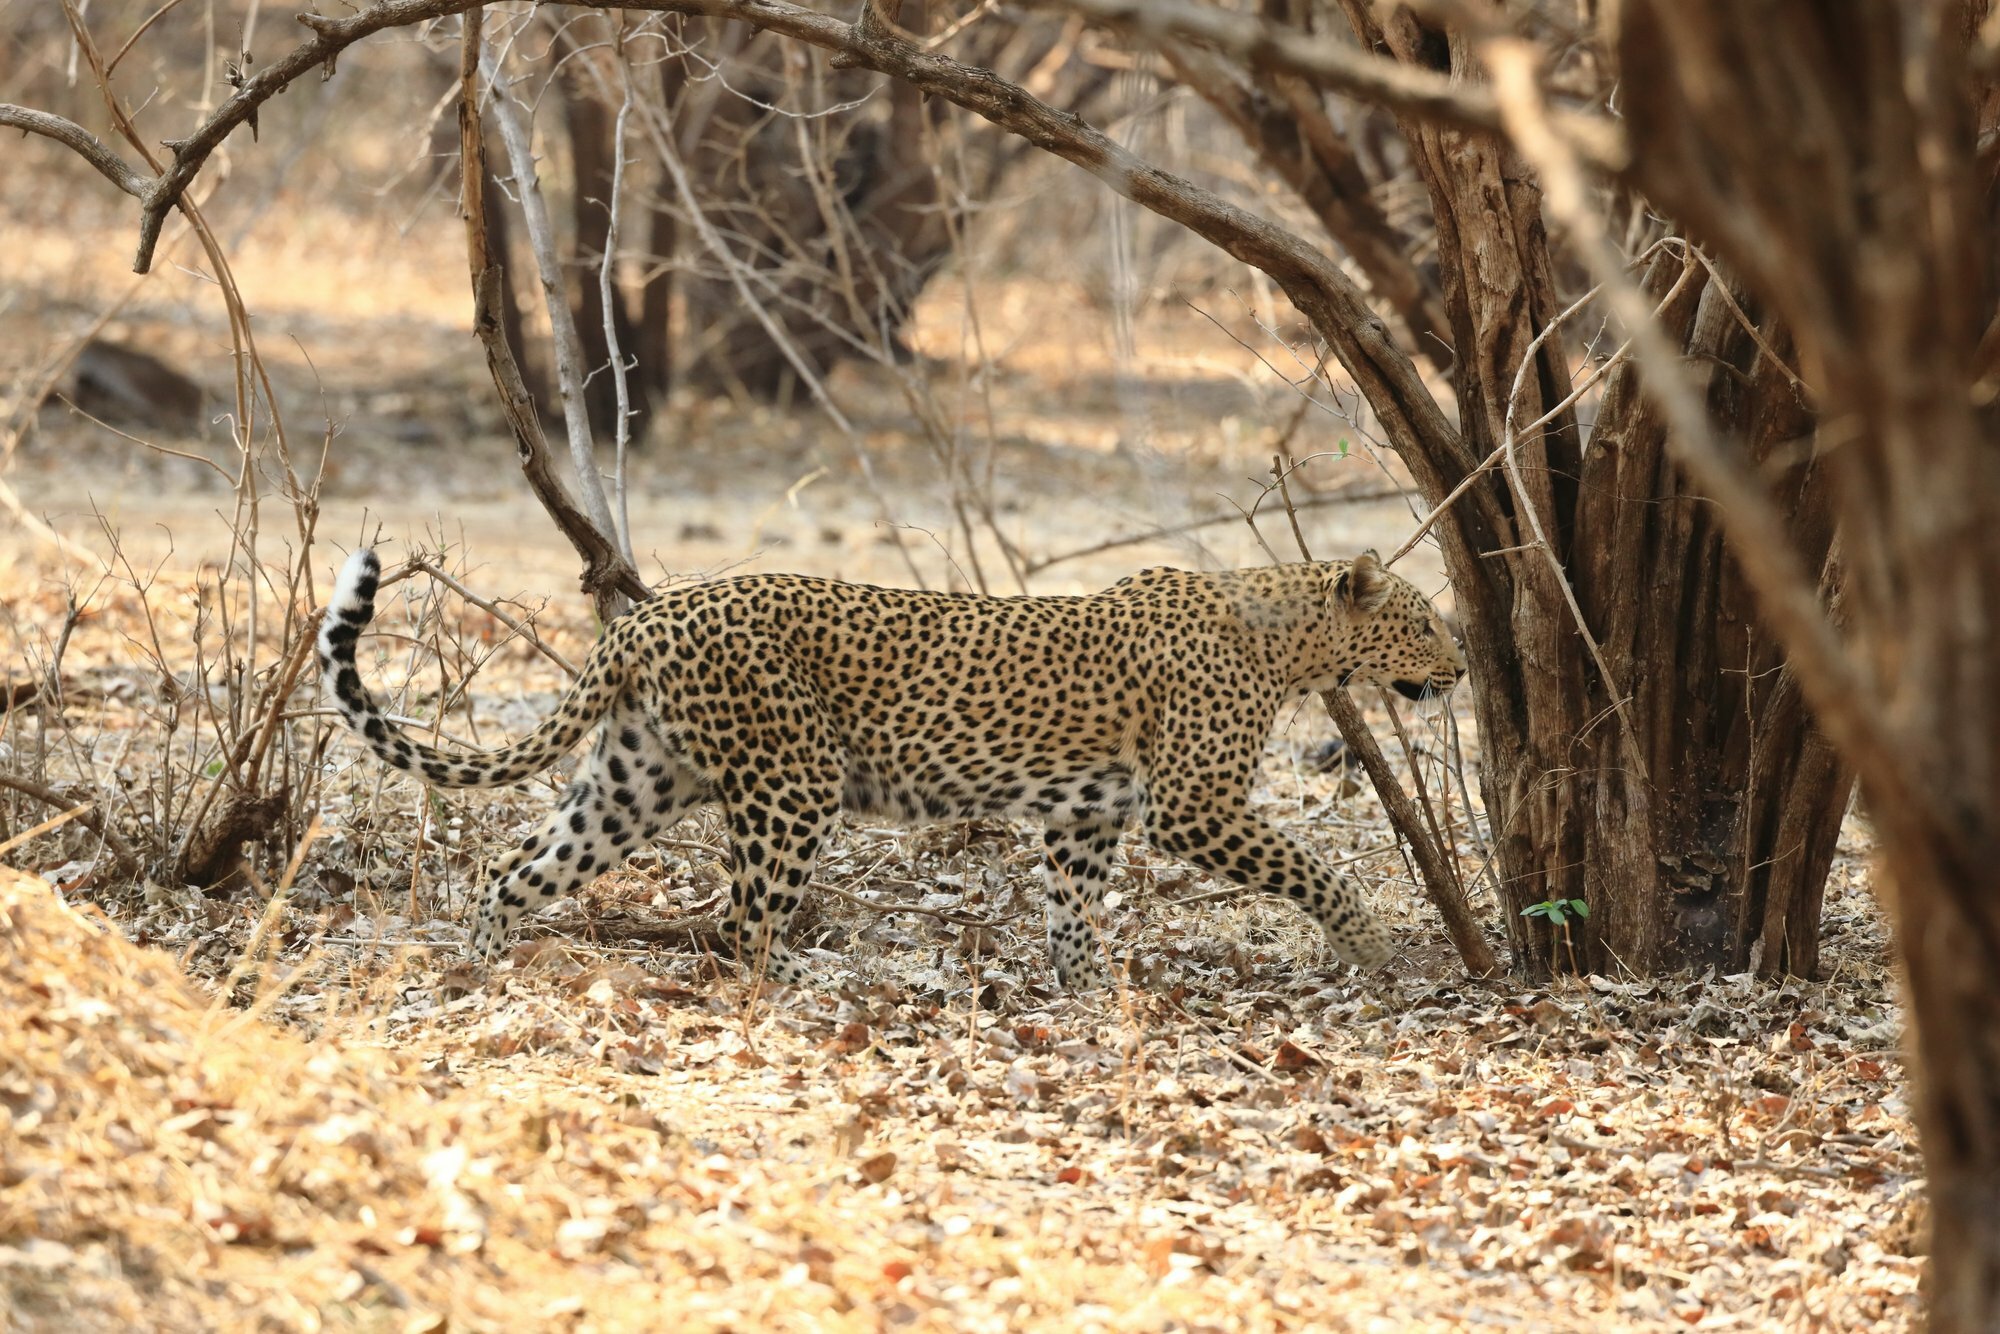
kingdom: Animalia
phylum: Chordata
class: Mammalia
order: Carnivora
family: Felidae
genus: Panthera
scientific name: Panthera pardus
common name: Leopard
